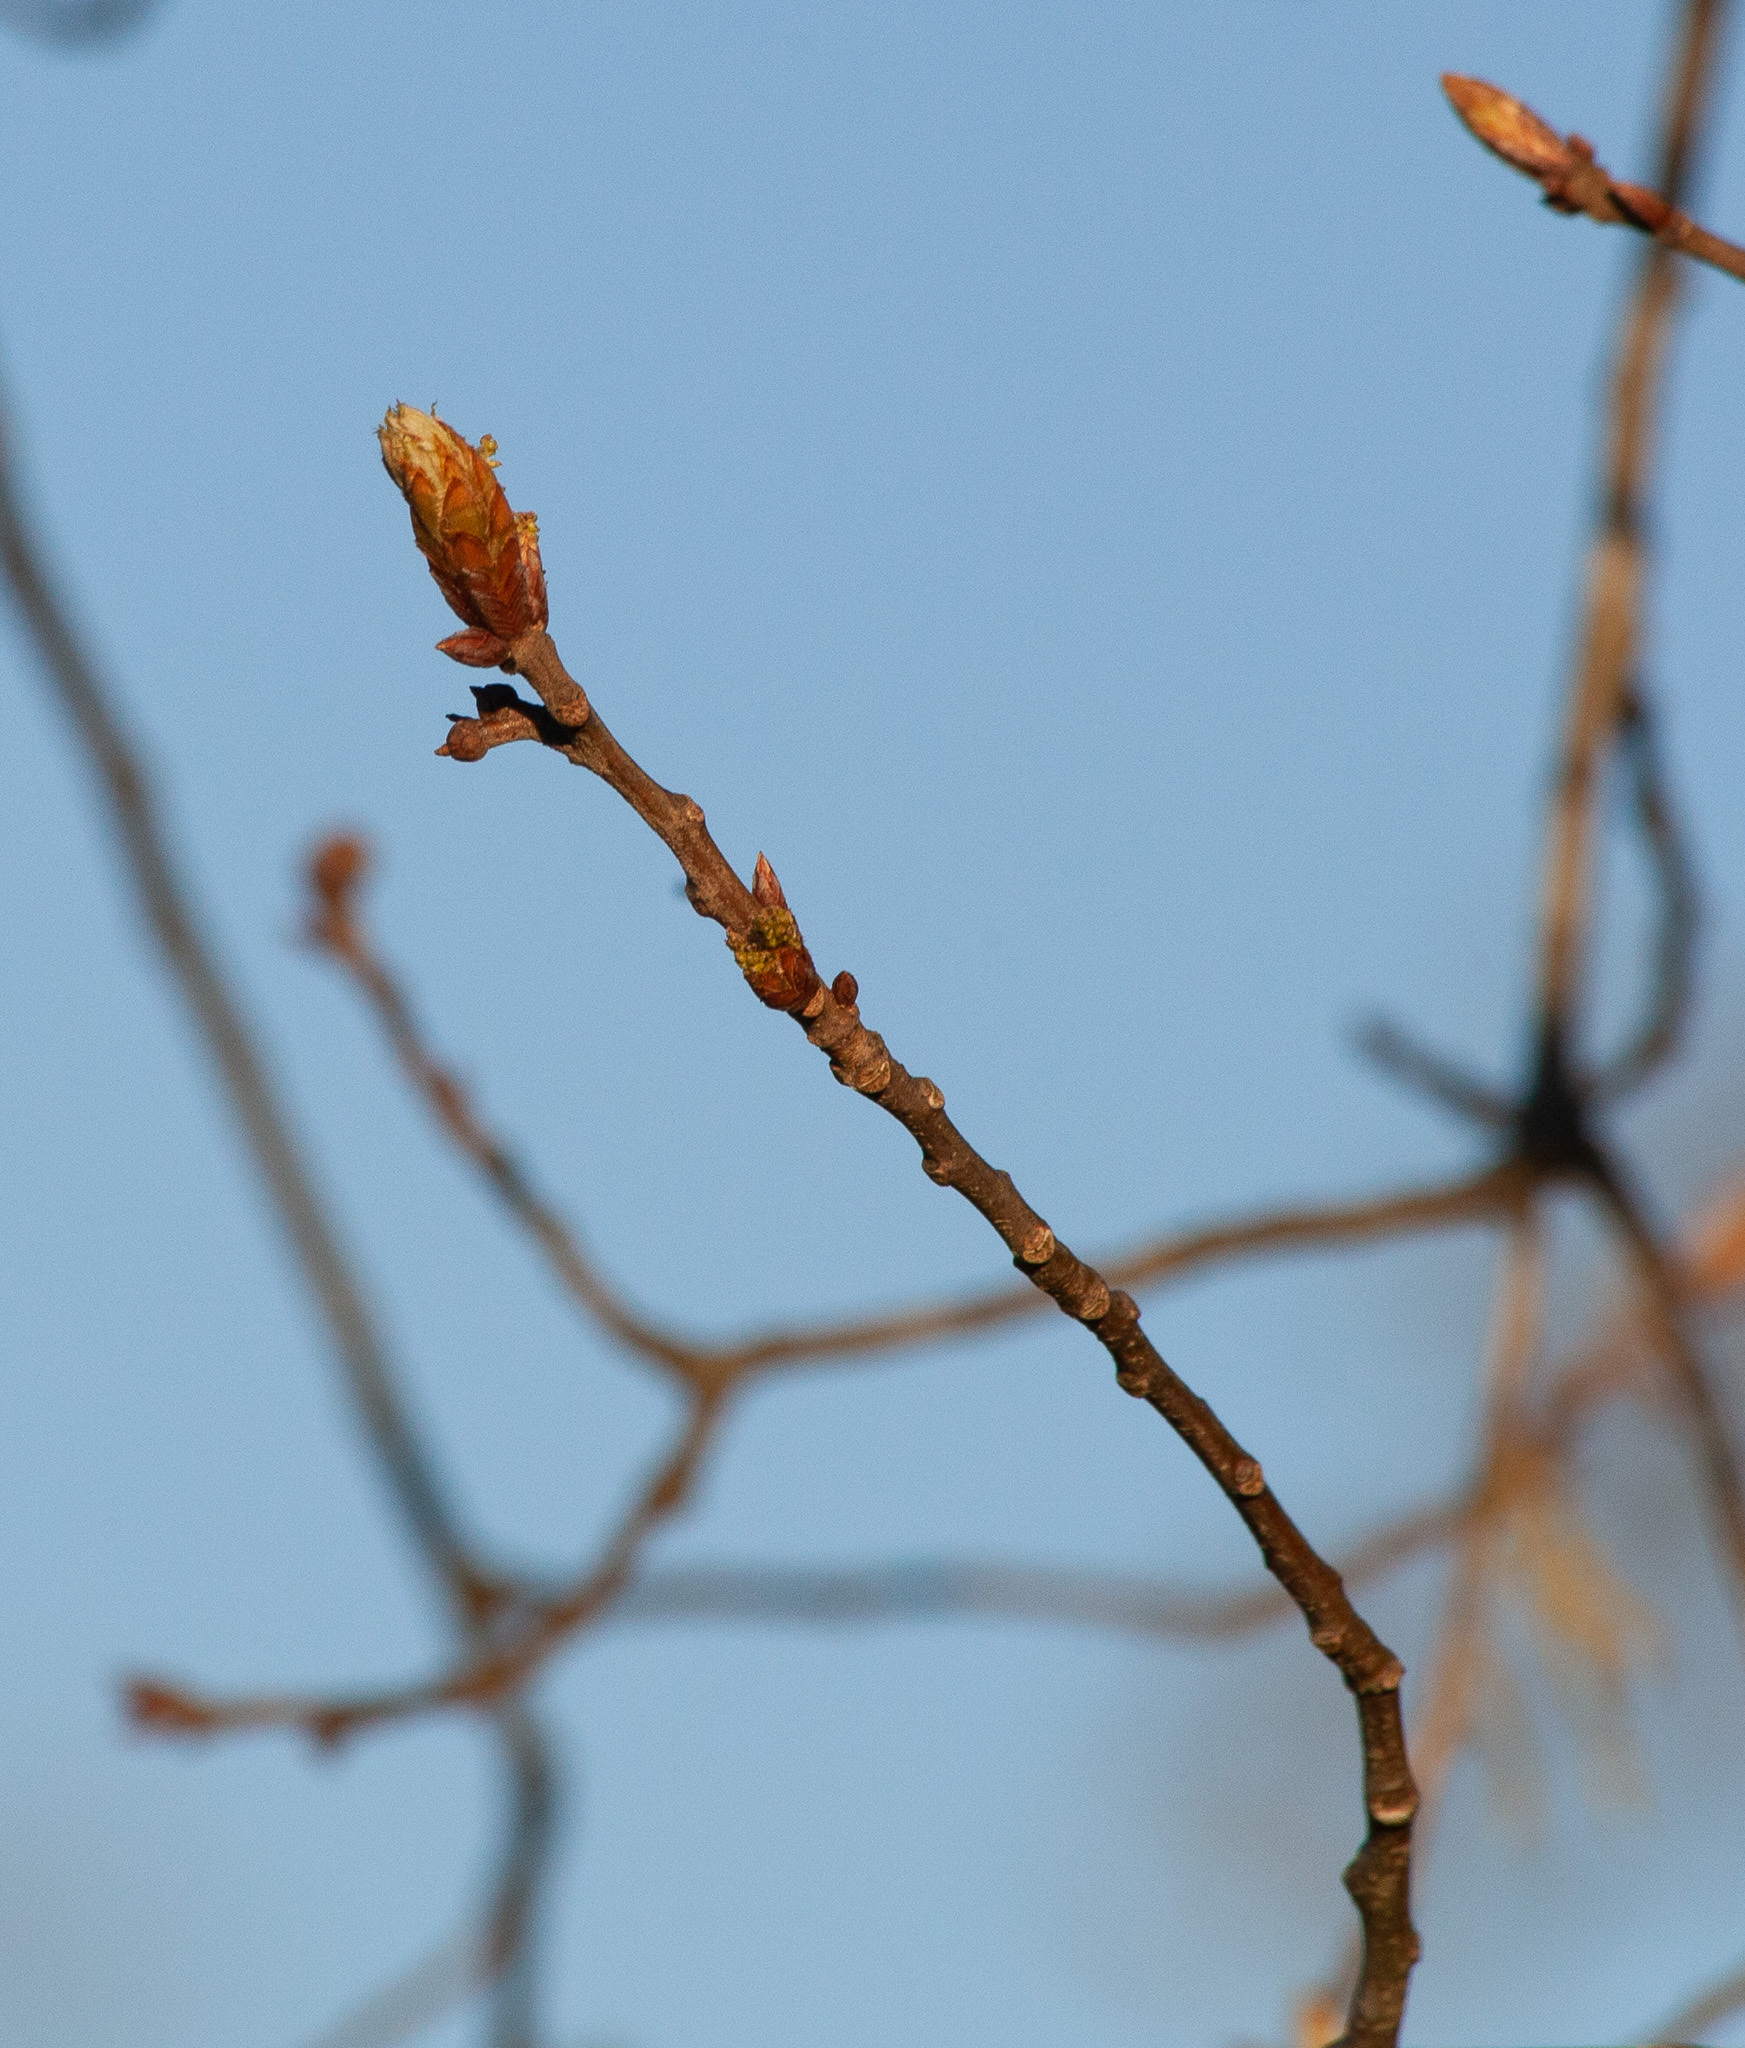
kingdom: Plantae
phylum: Tracheophyta
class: Magnoliopsida
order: Fagales
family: Fagaceae
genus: Quercus
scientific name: Quercus pagoda
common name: Cherrybark oak
